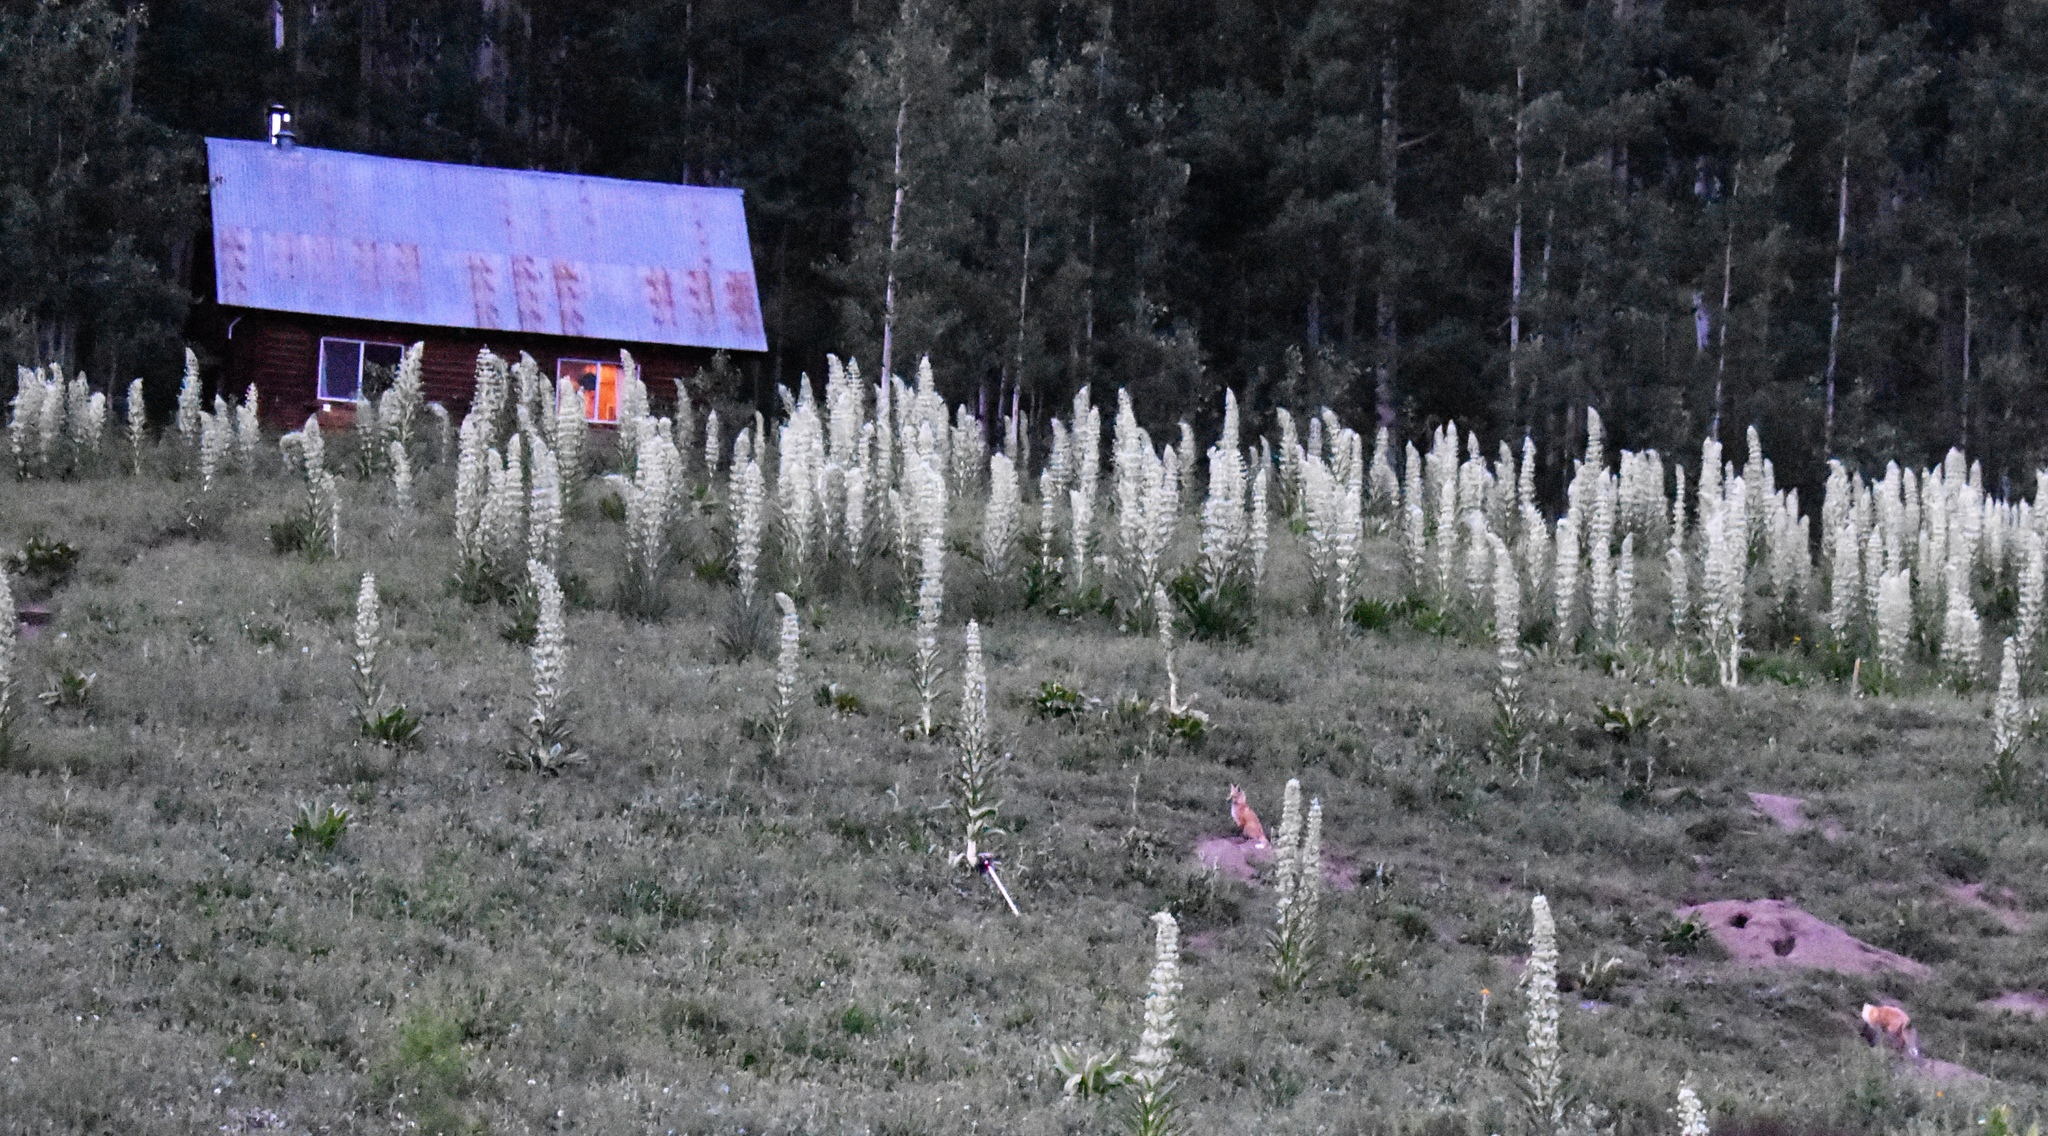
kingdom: Animalia
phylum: Chordata
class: Mammalia
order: Carnivora
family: Canidae
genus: Vulpes
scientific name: Vulpes vulpes
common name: Red fox
